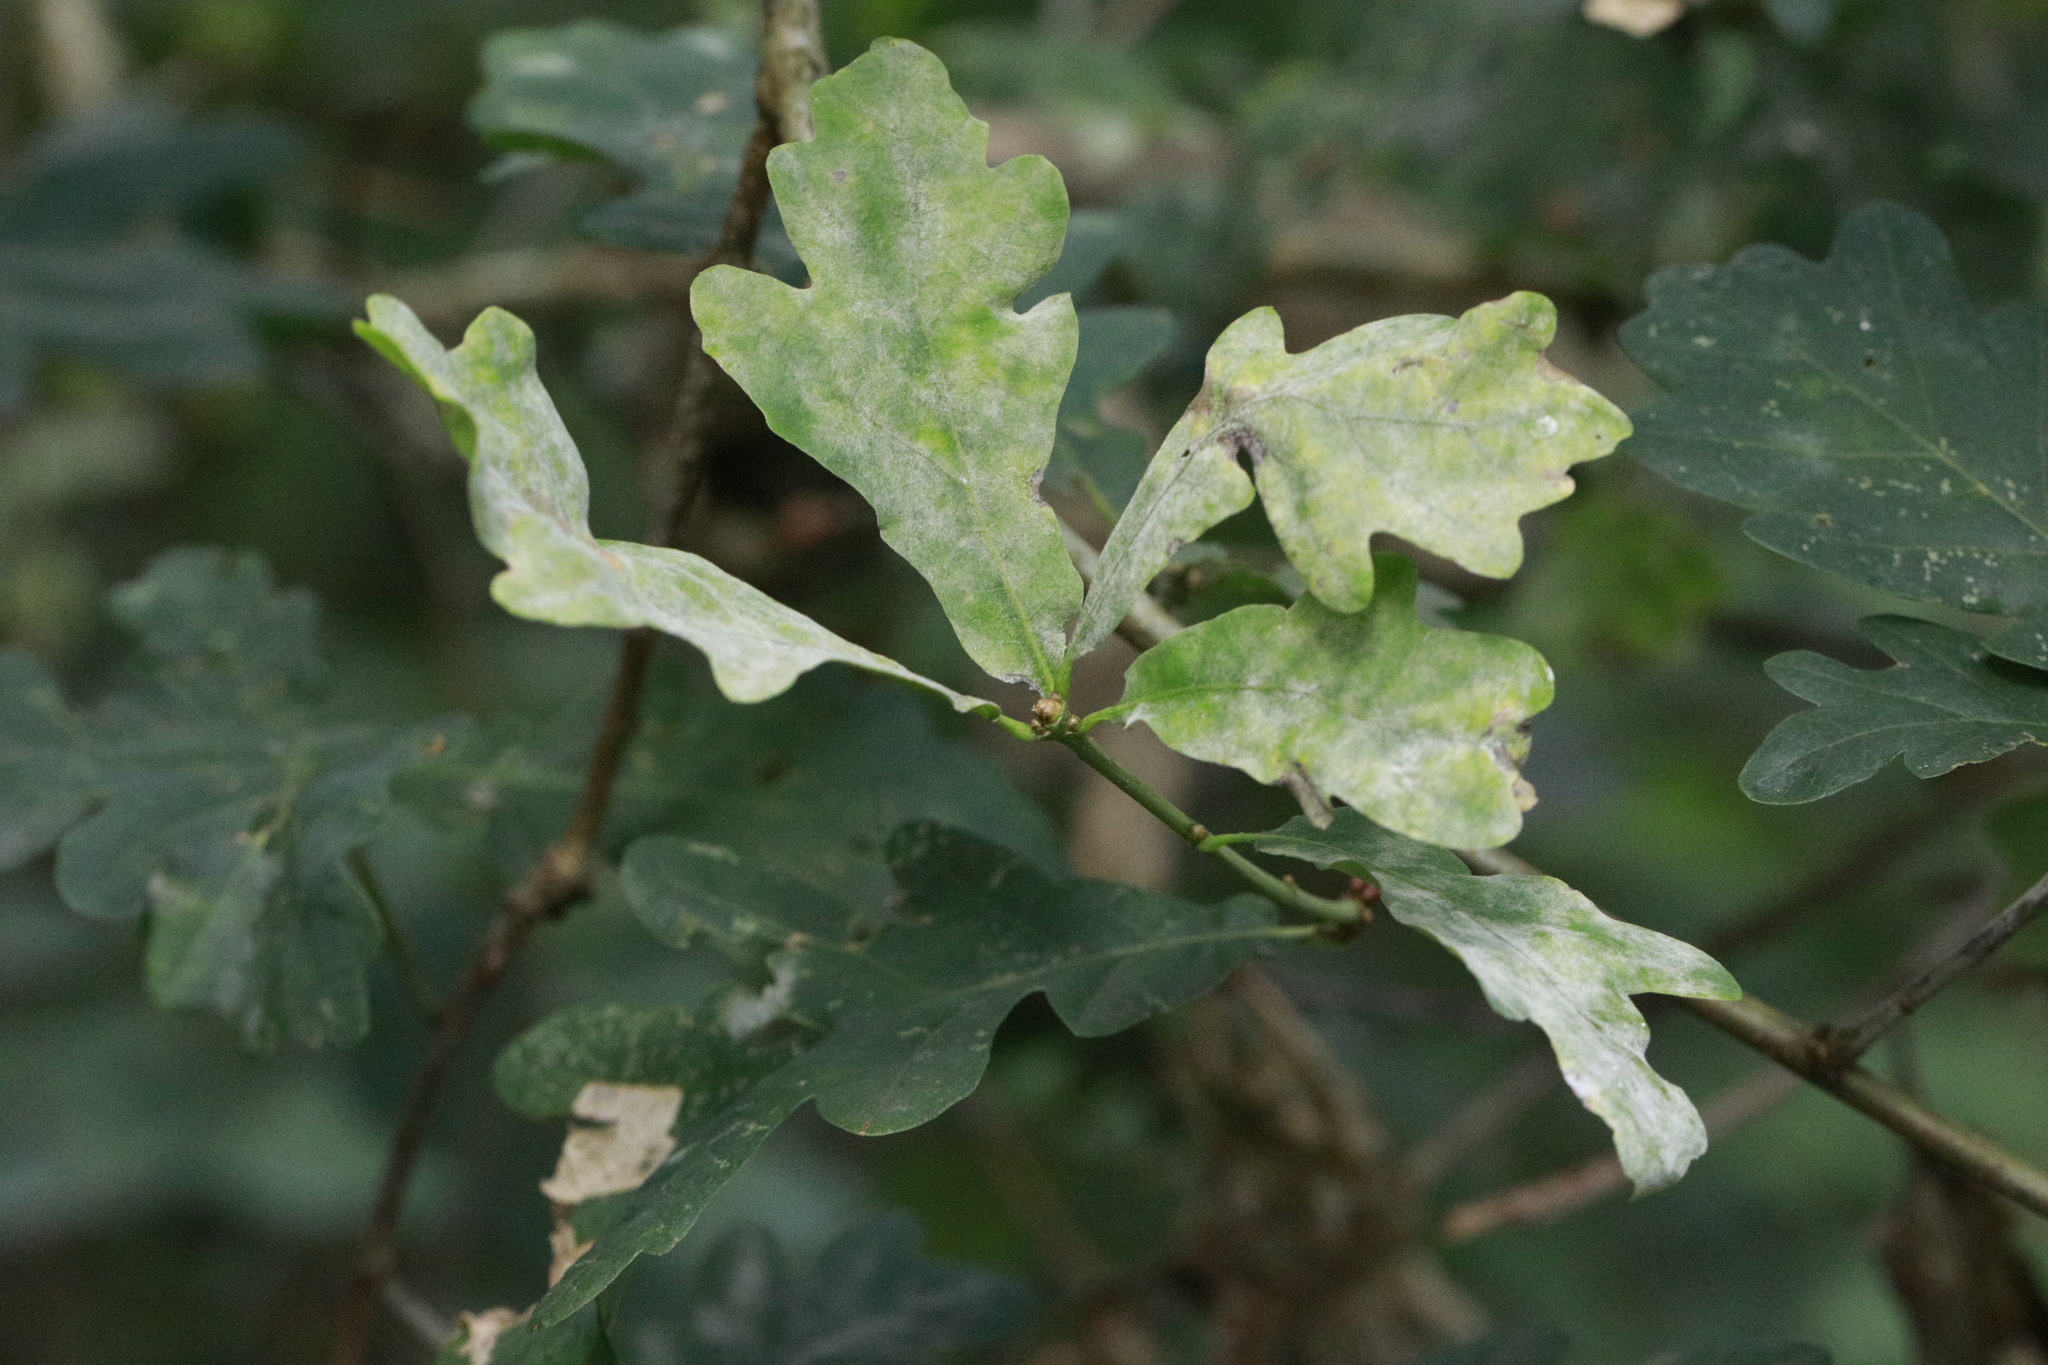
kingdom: Fungi
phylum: Ascomycota
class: Leotiomycetes
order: Helotiales
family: Erysiphaceae
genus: Erysiphe
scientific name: Erysiphe alphitoides
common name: Oak mildew
